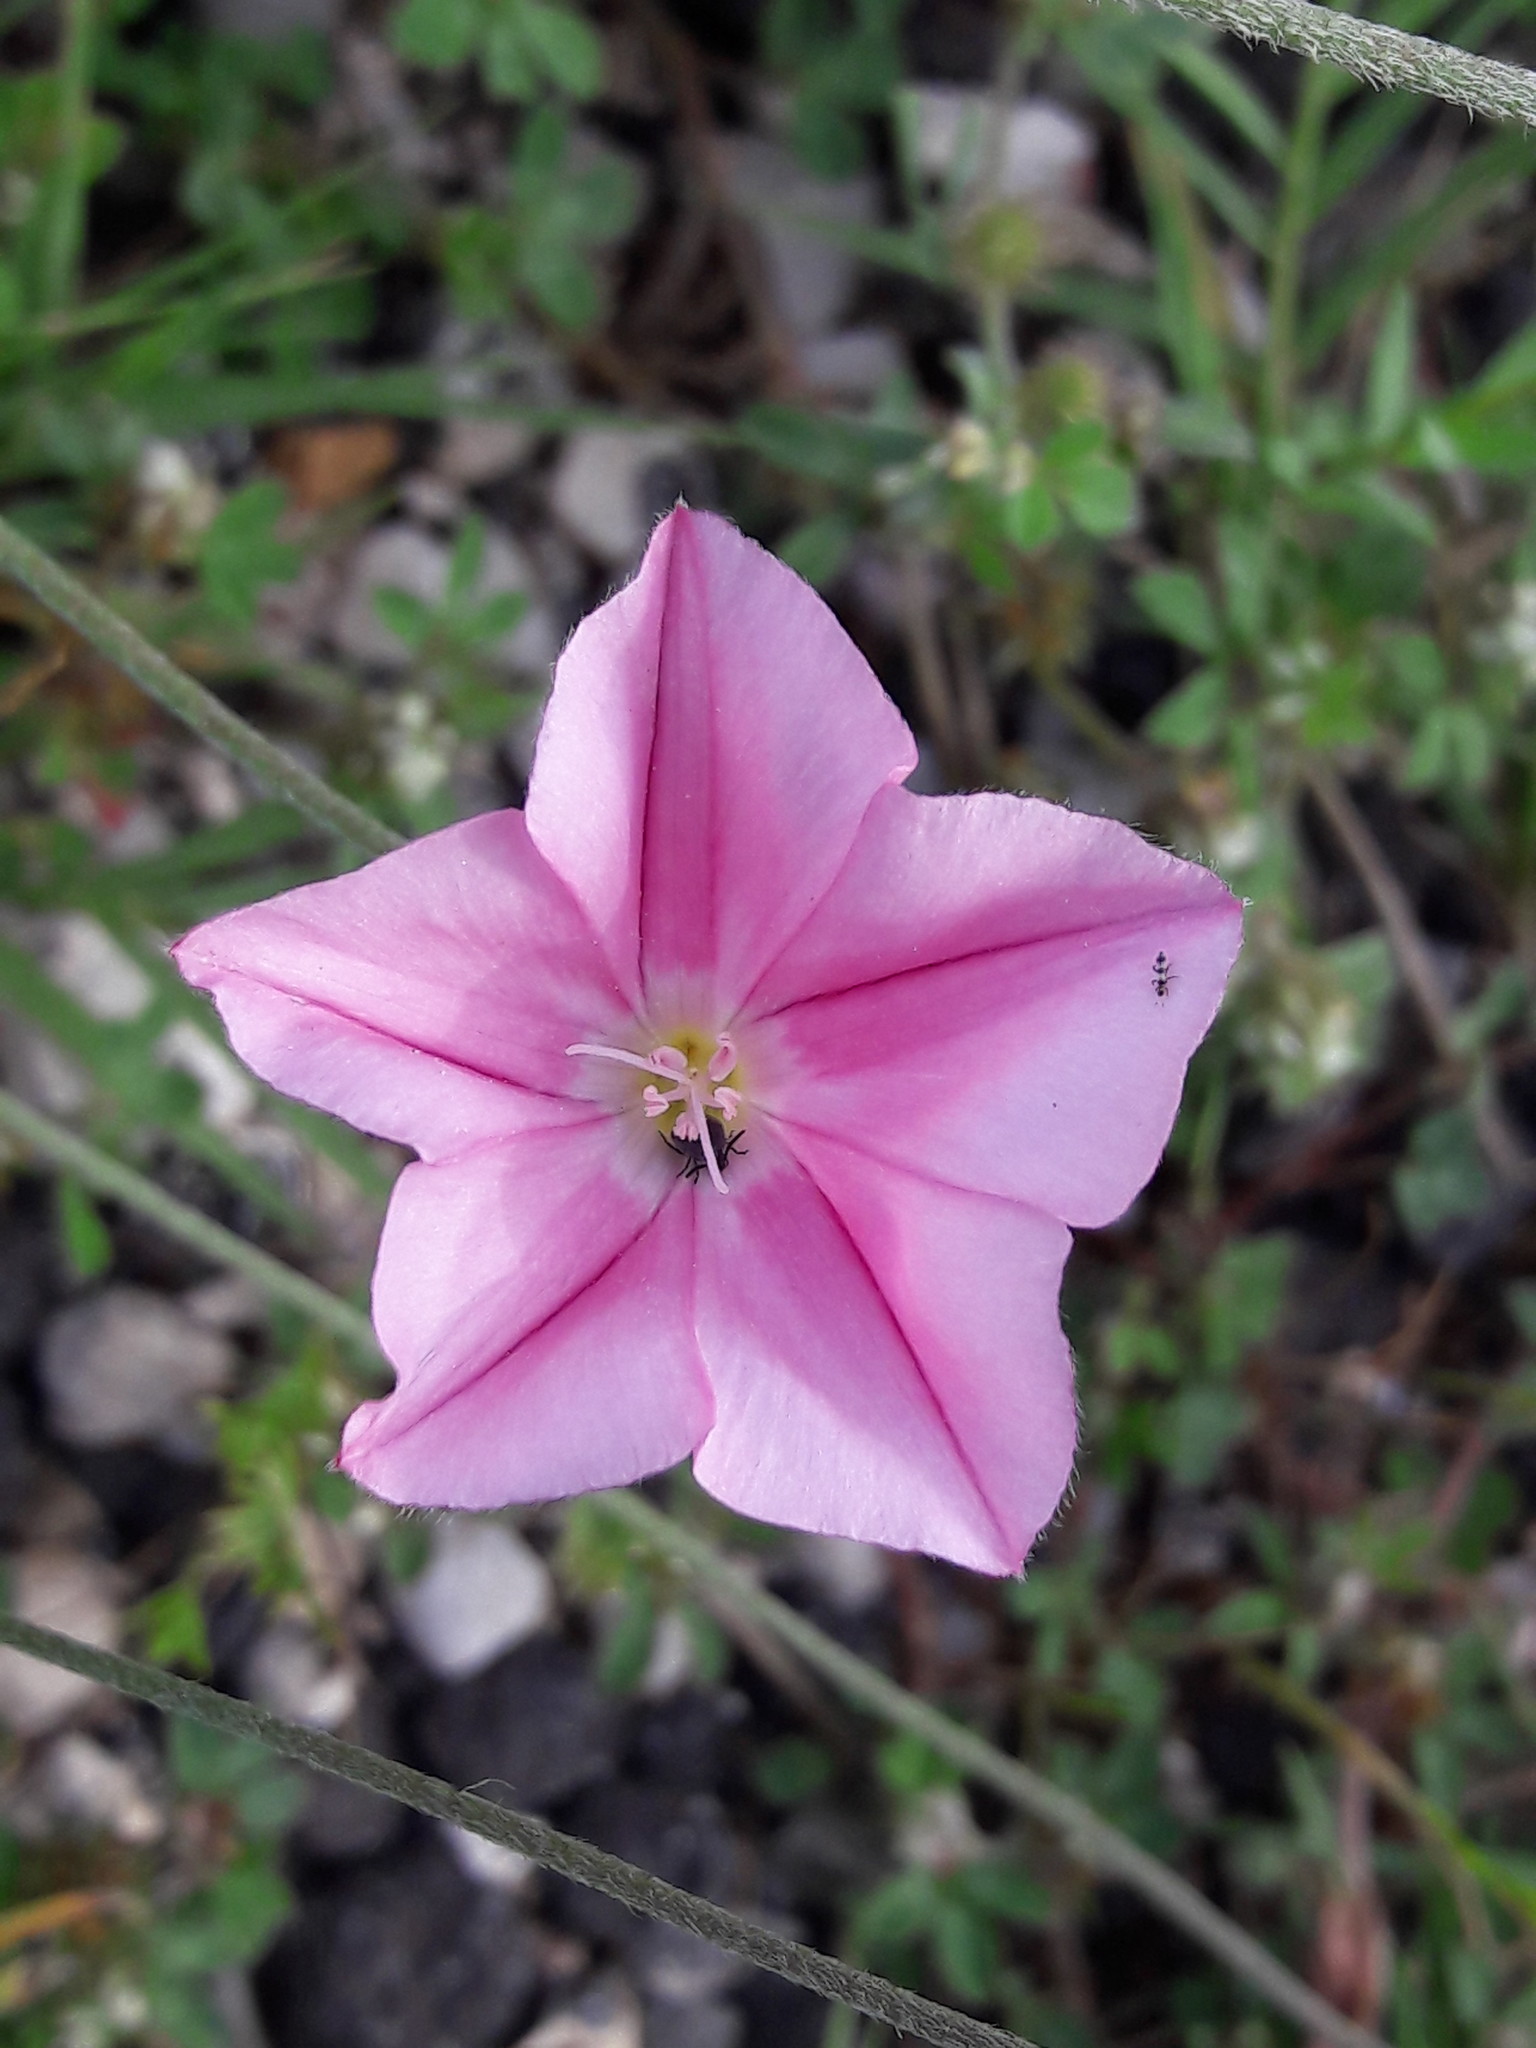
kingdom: Plantae
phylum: Tracheophyta
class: Magnoliopsida
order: Solanales
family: Convolvulaceae
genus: Convolvulus
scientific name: Convolvulus cantabrica
